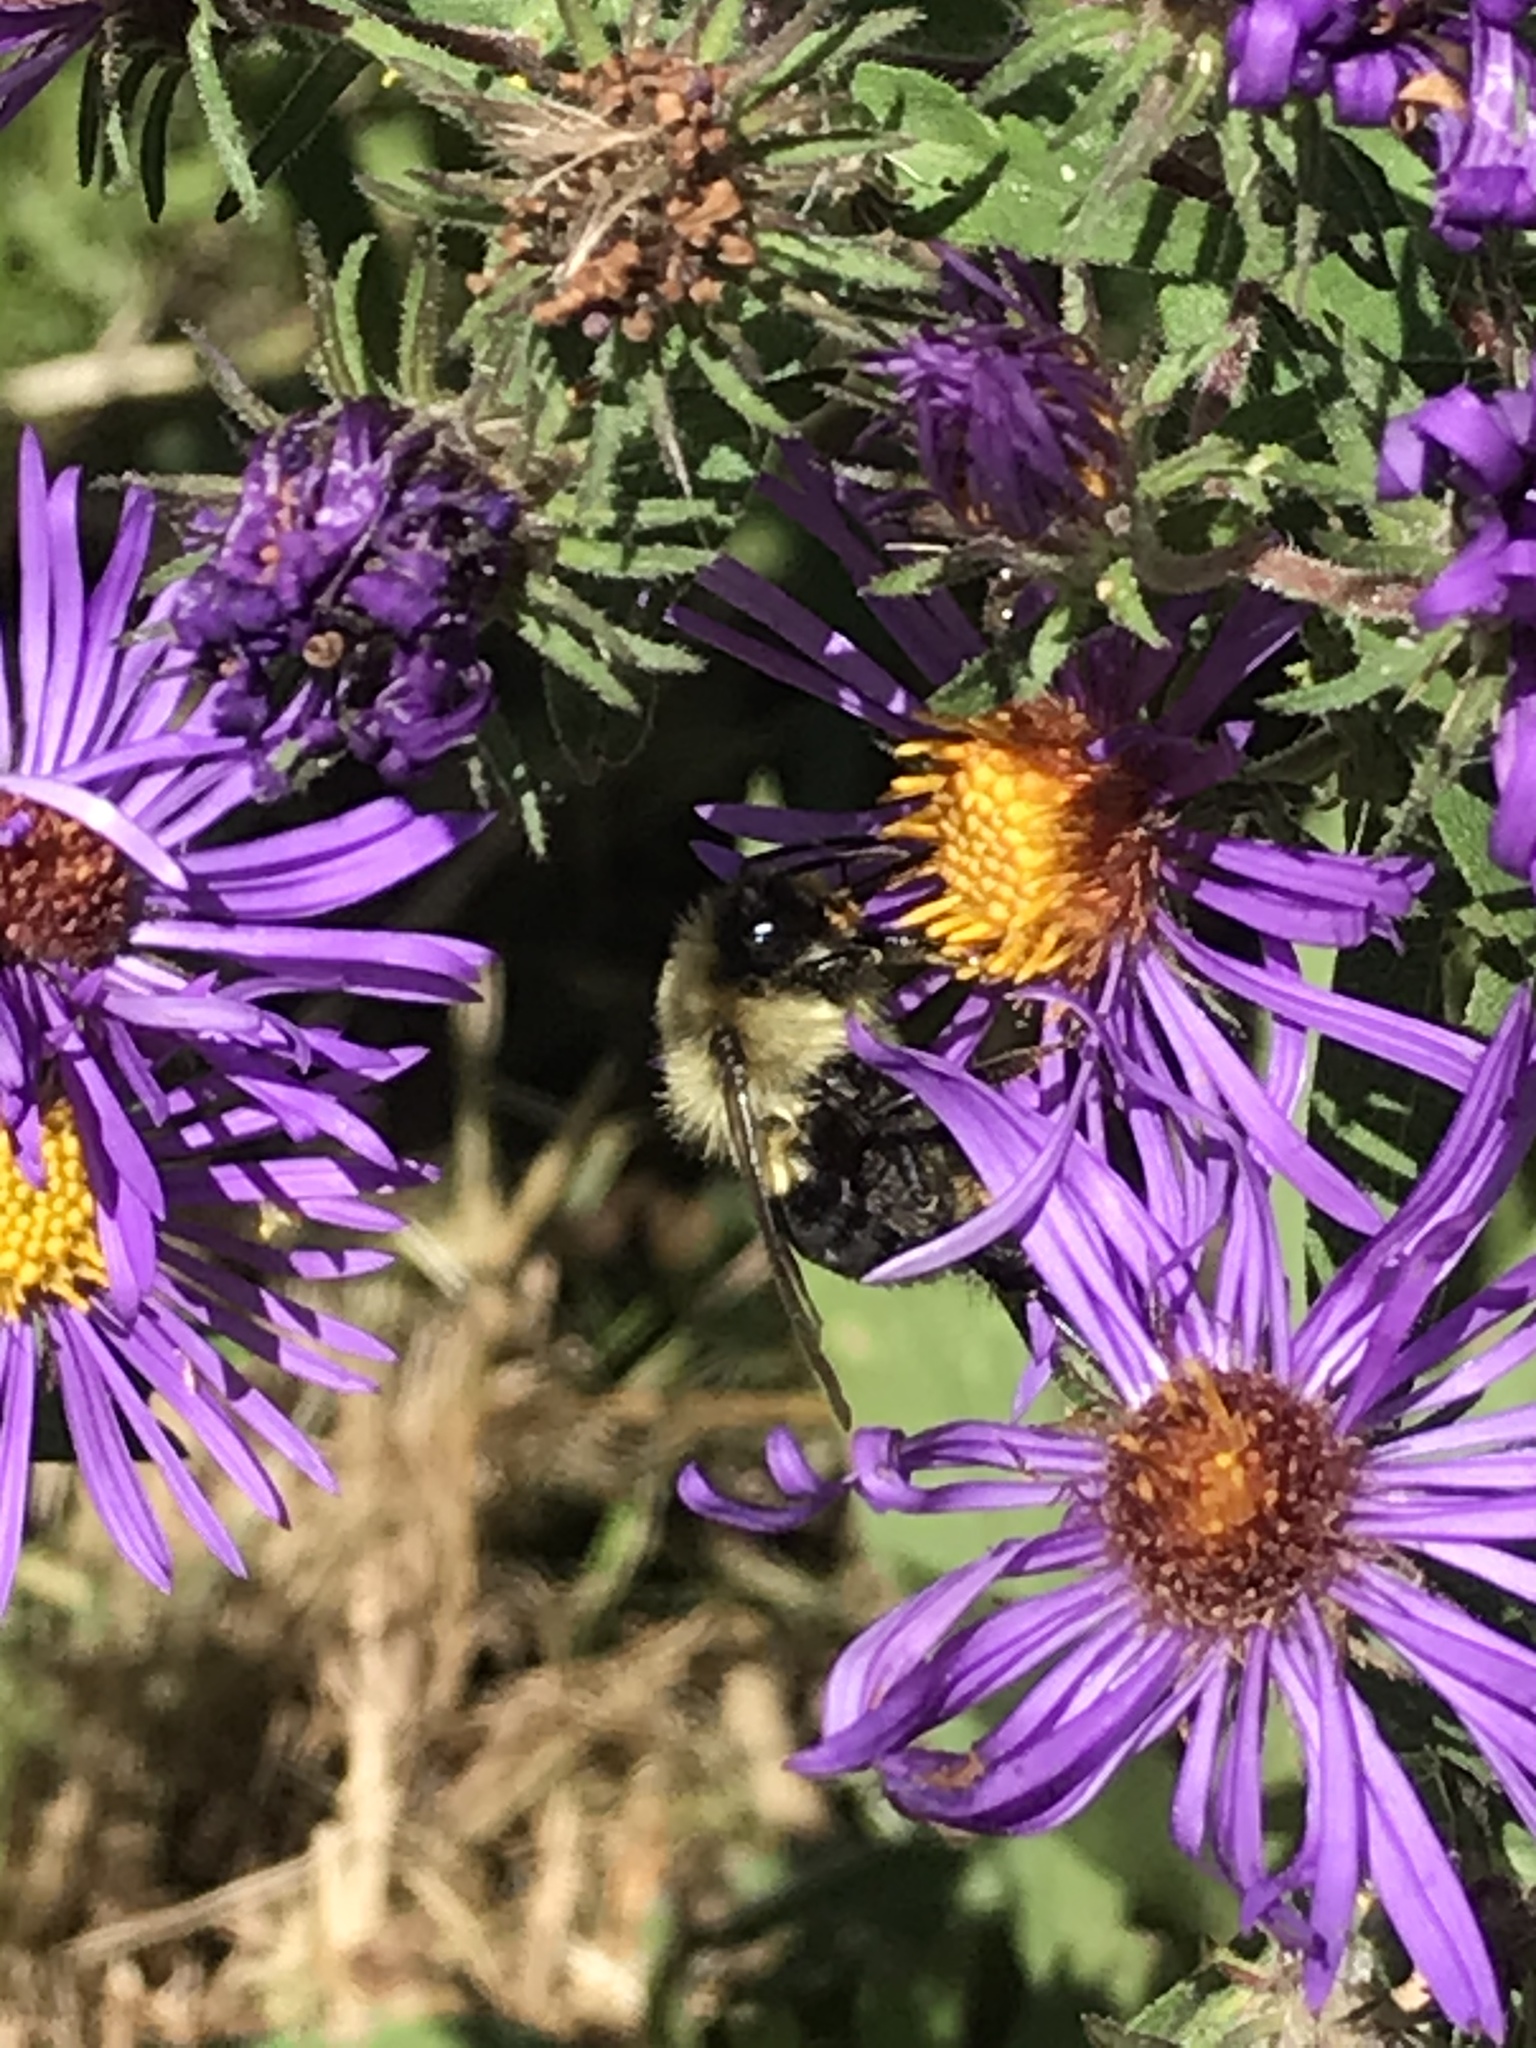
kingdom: Animalia
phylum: Arthropoda
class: Insecta
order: Hymenoptera
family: Apidae
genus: Bombus
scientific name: Bombus impatiens
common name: Common eastern bumble bee
